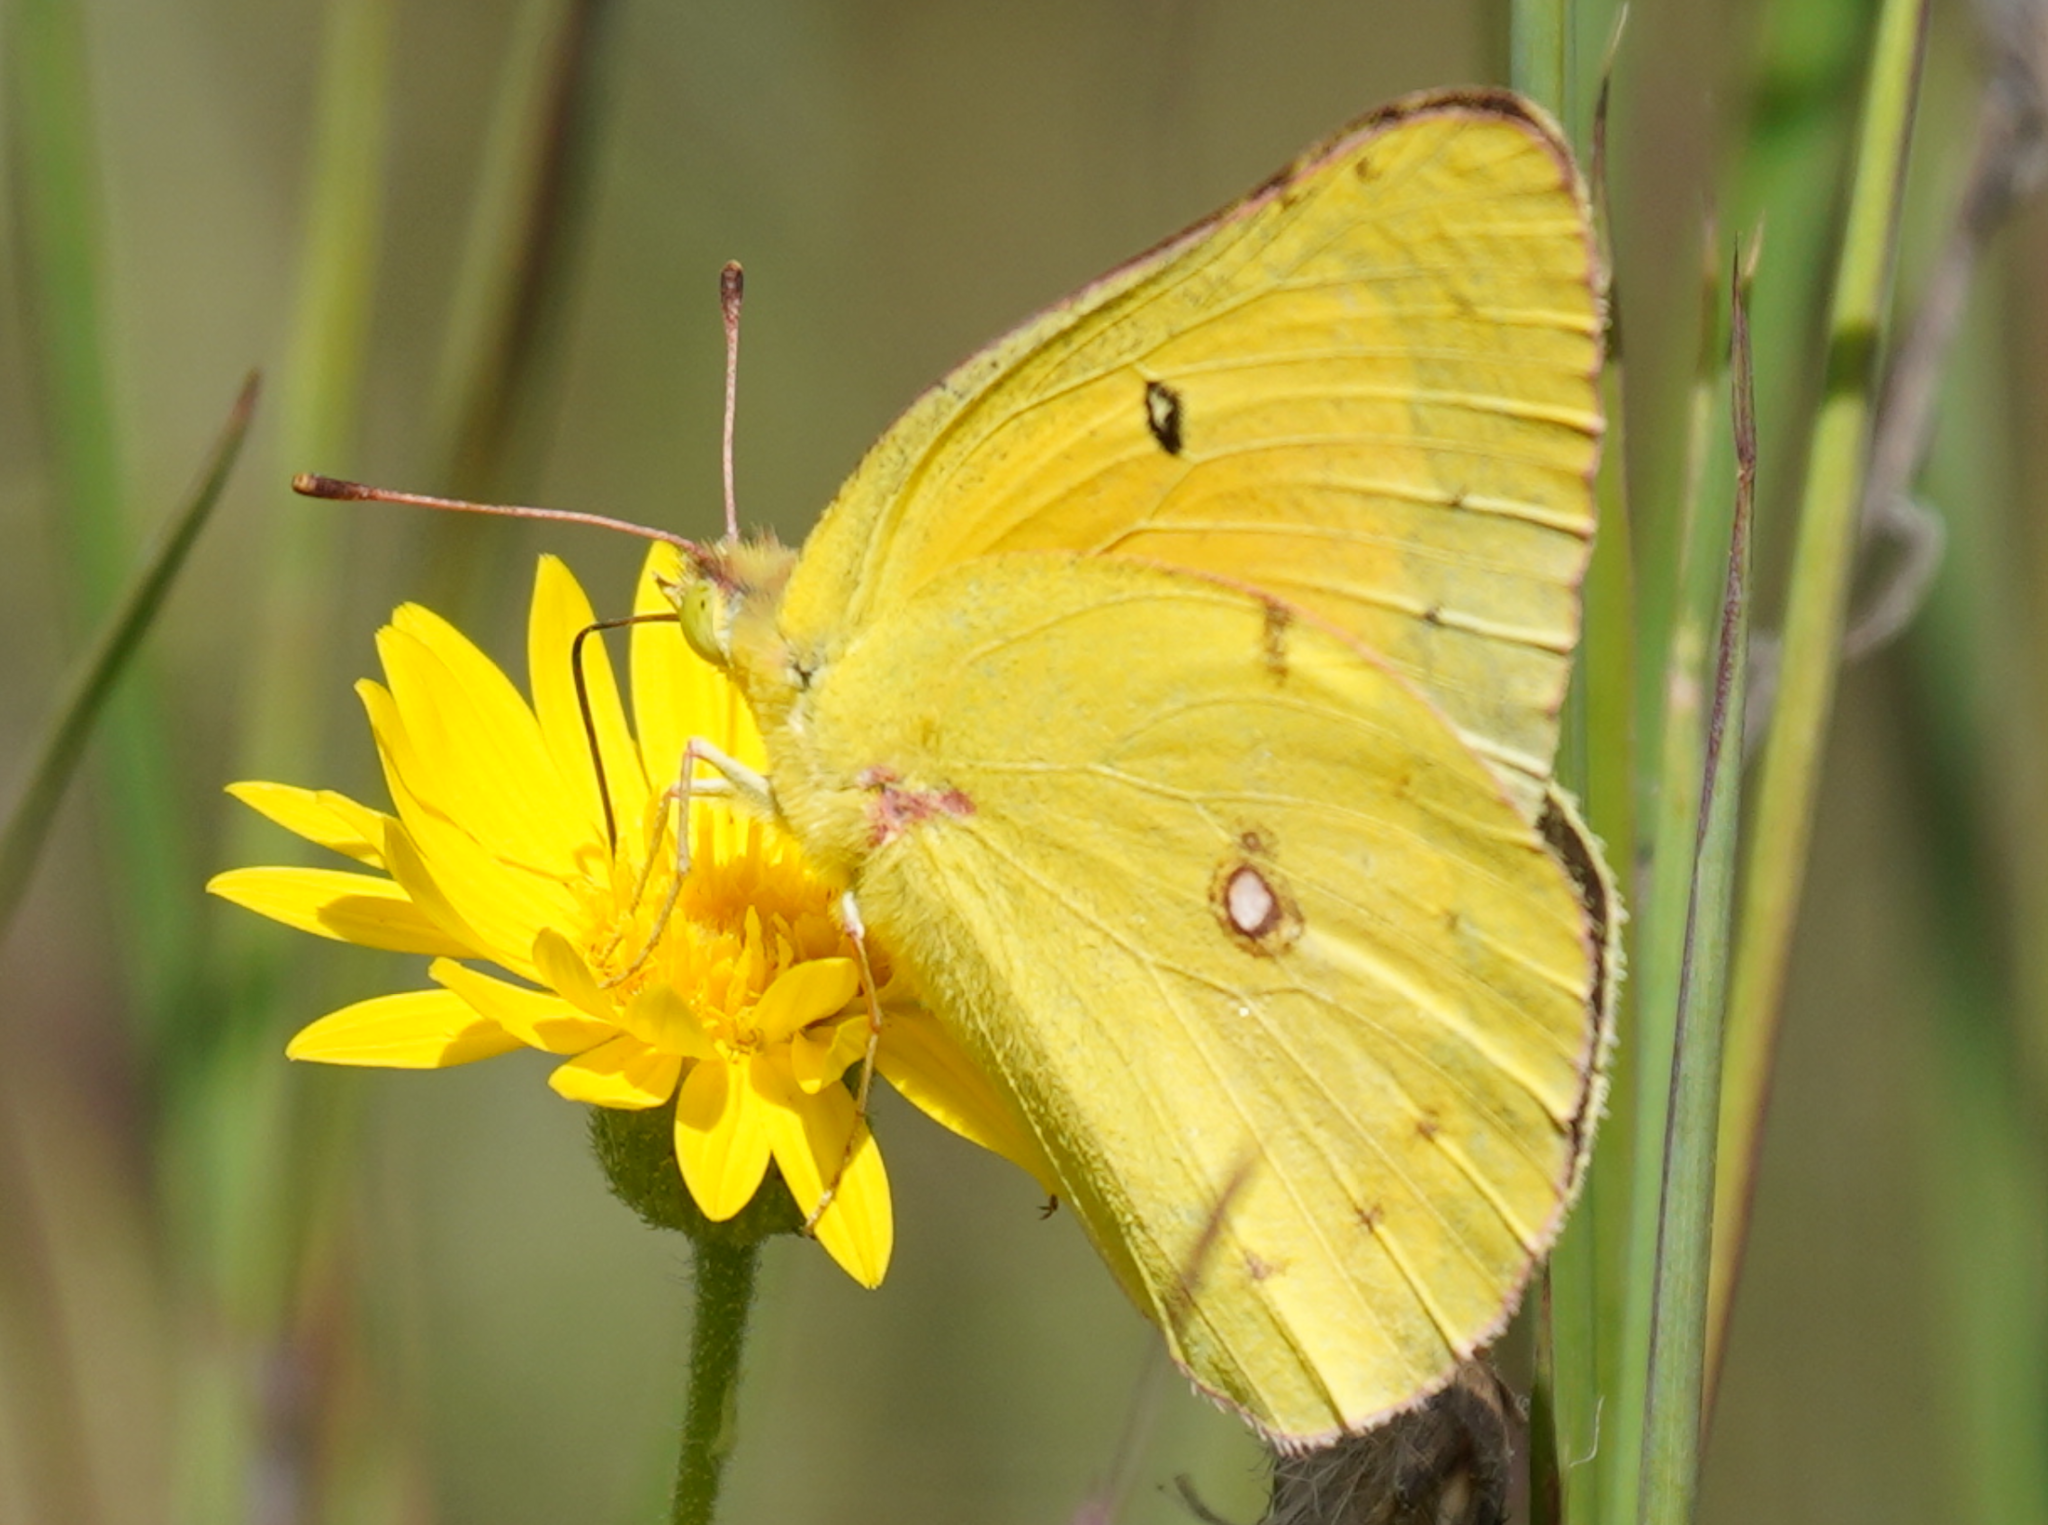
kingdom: Animalia
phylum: Arthropoda
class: Insecta
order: Lepidoptera
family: Pieridae
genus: Colias
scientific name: Colias eurytheme
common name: Alfalfa butterfly
